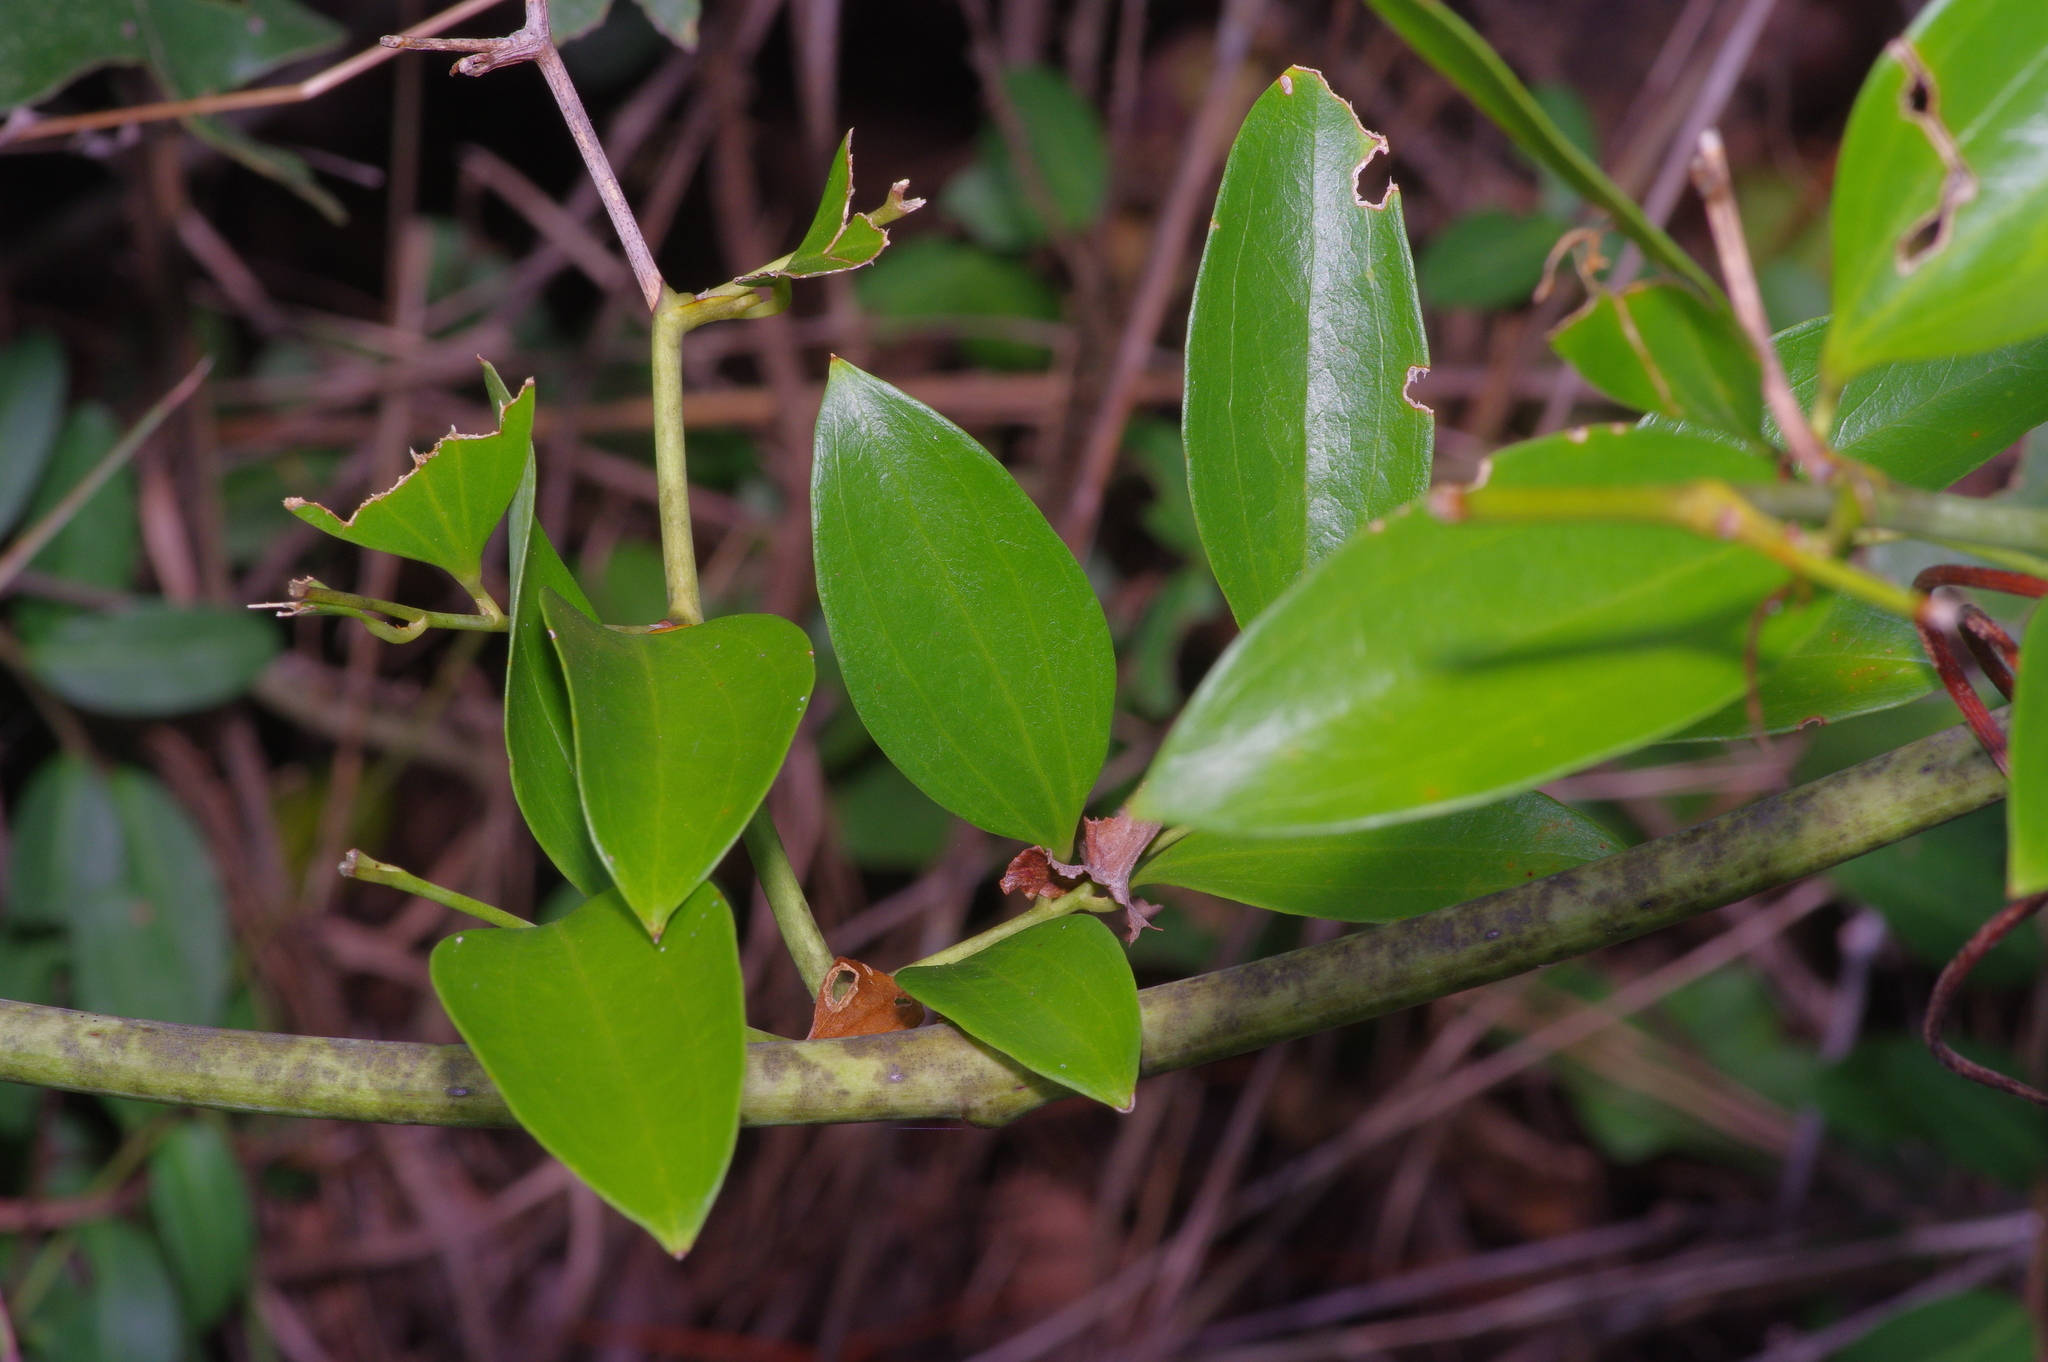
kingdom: Plantae
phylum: Tracheophyta
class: Liliopsida
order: Liliales
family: Smilacaceae
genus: Smilax
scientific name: Smilax maritima
